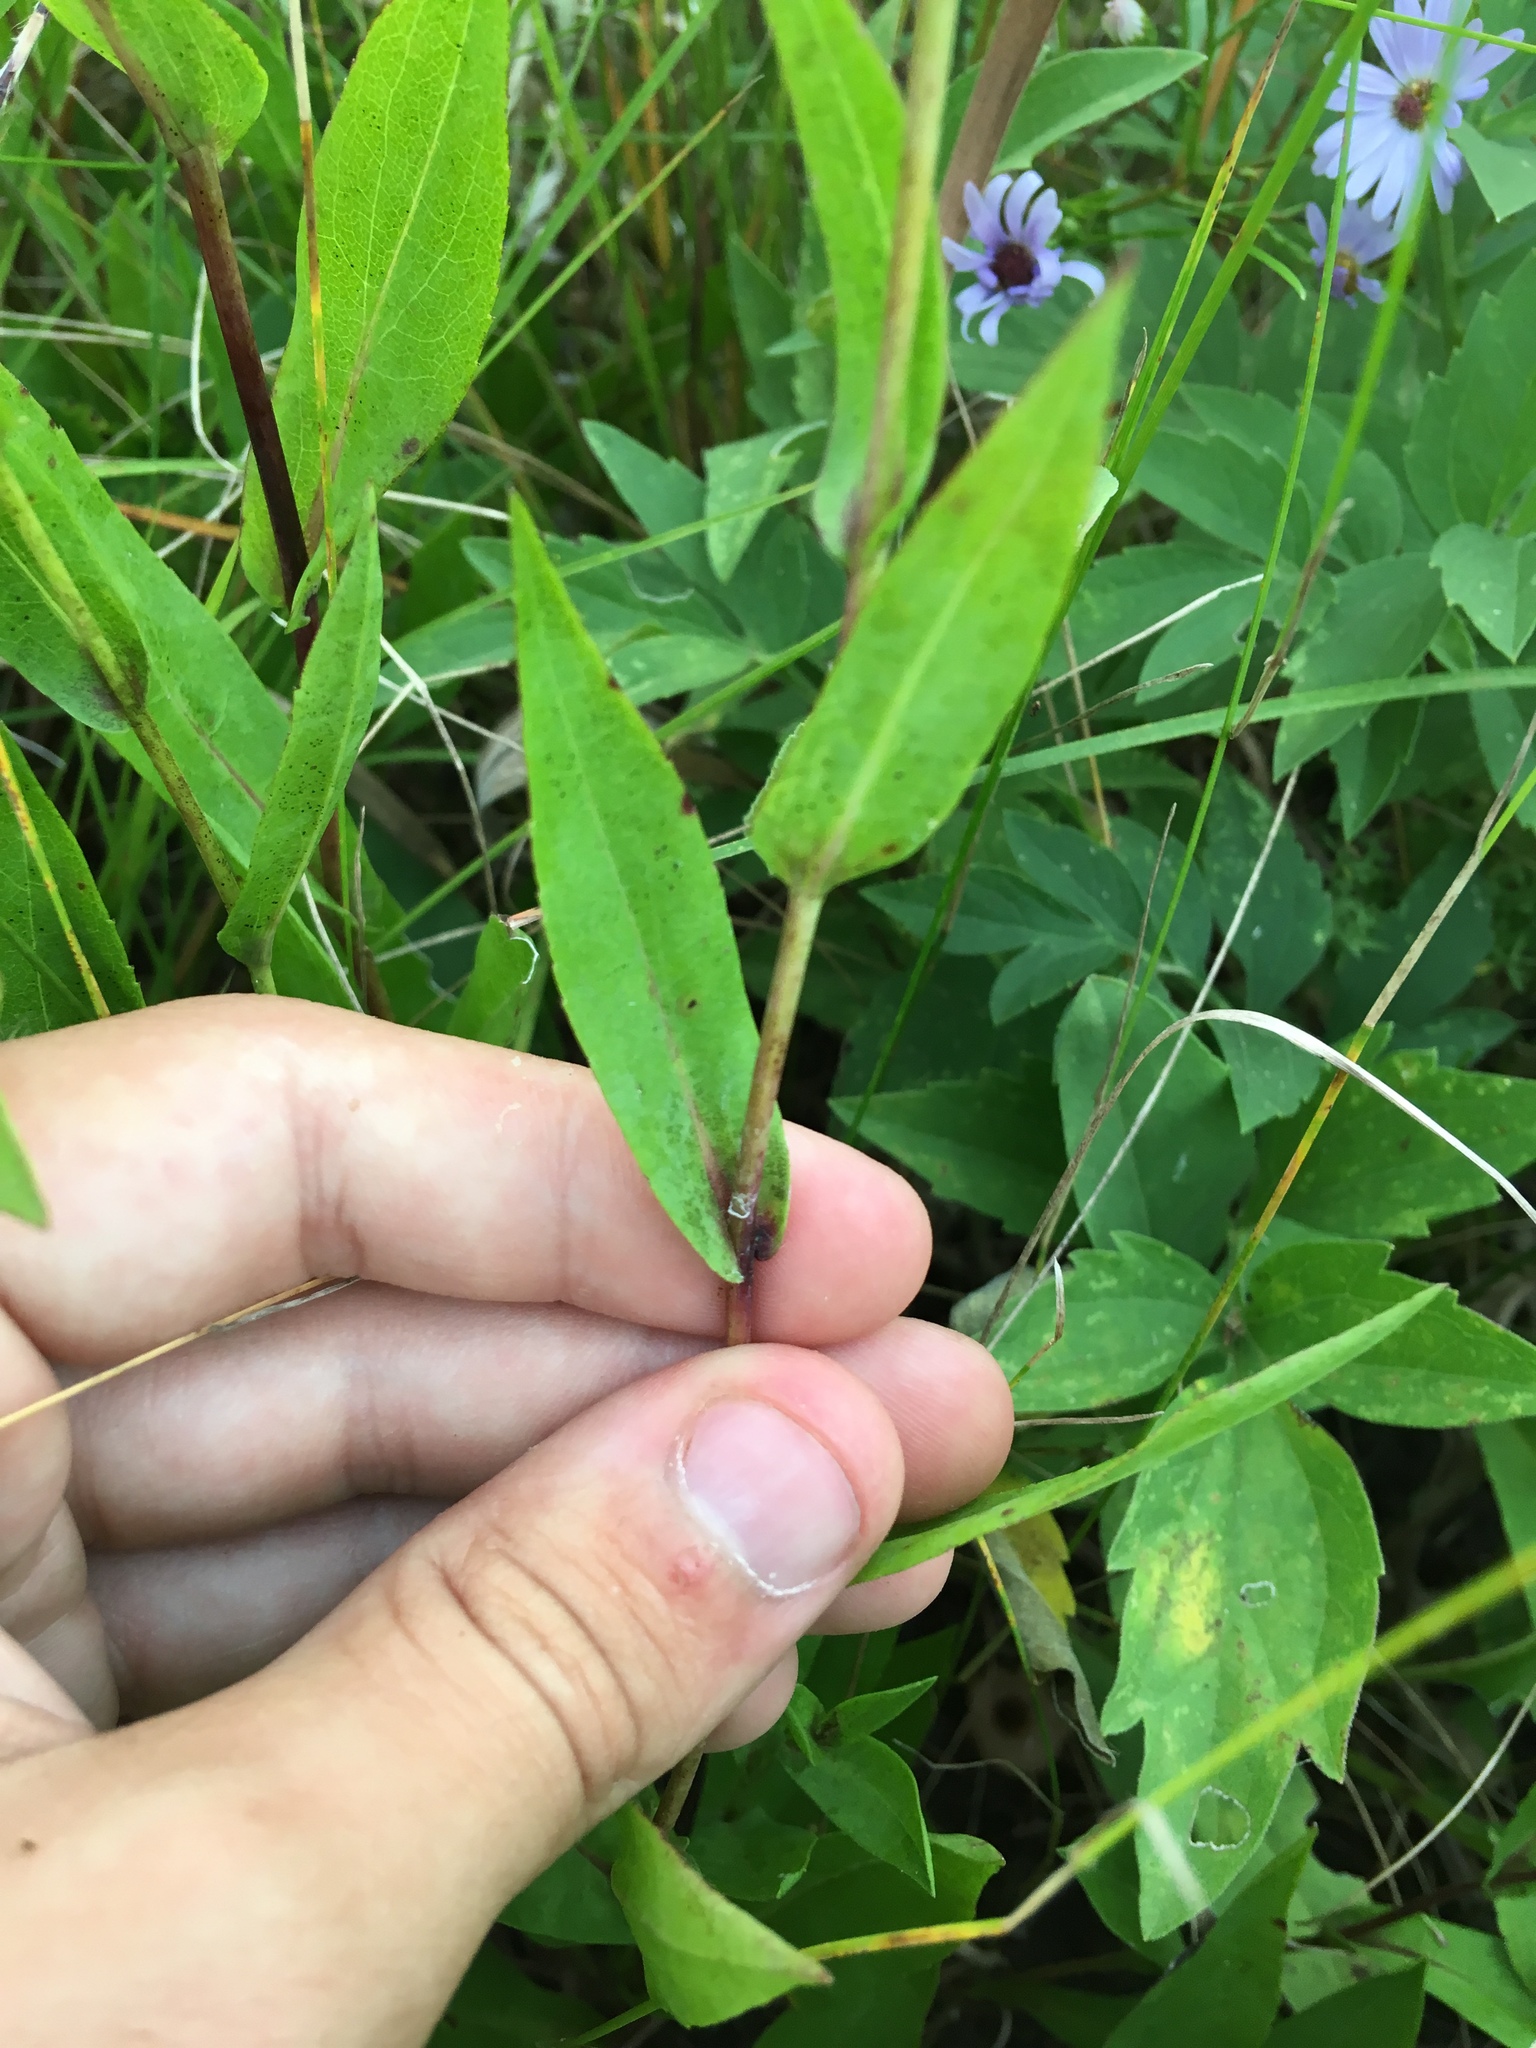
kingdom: Plantae
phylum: Tracheophyta
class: Magnoliopsida
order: Asterales
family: Asteraceae
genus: Symphyotrichum
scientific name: Symphyotrichum laeve
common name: Glaucous aster
